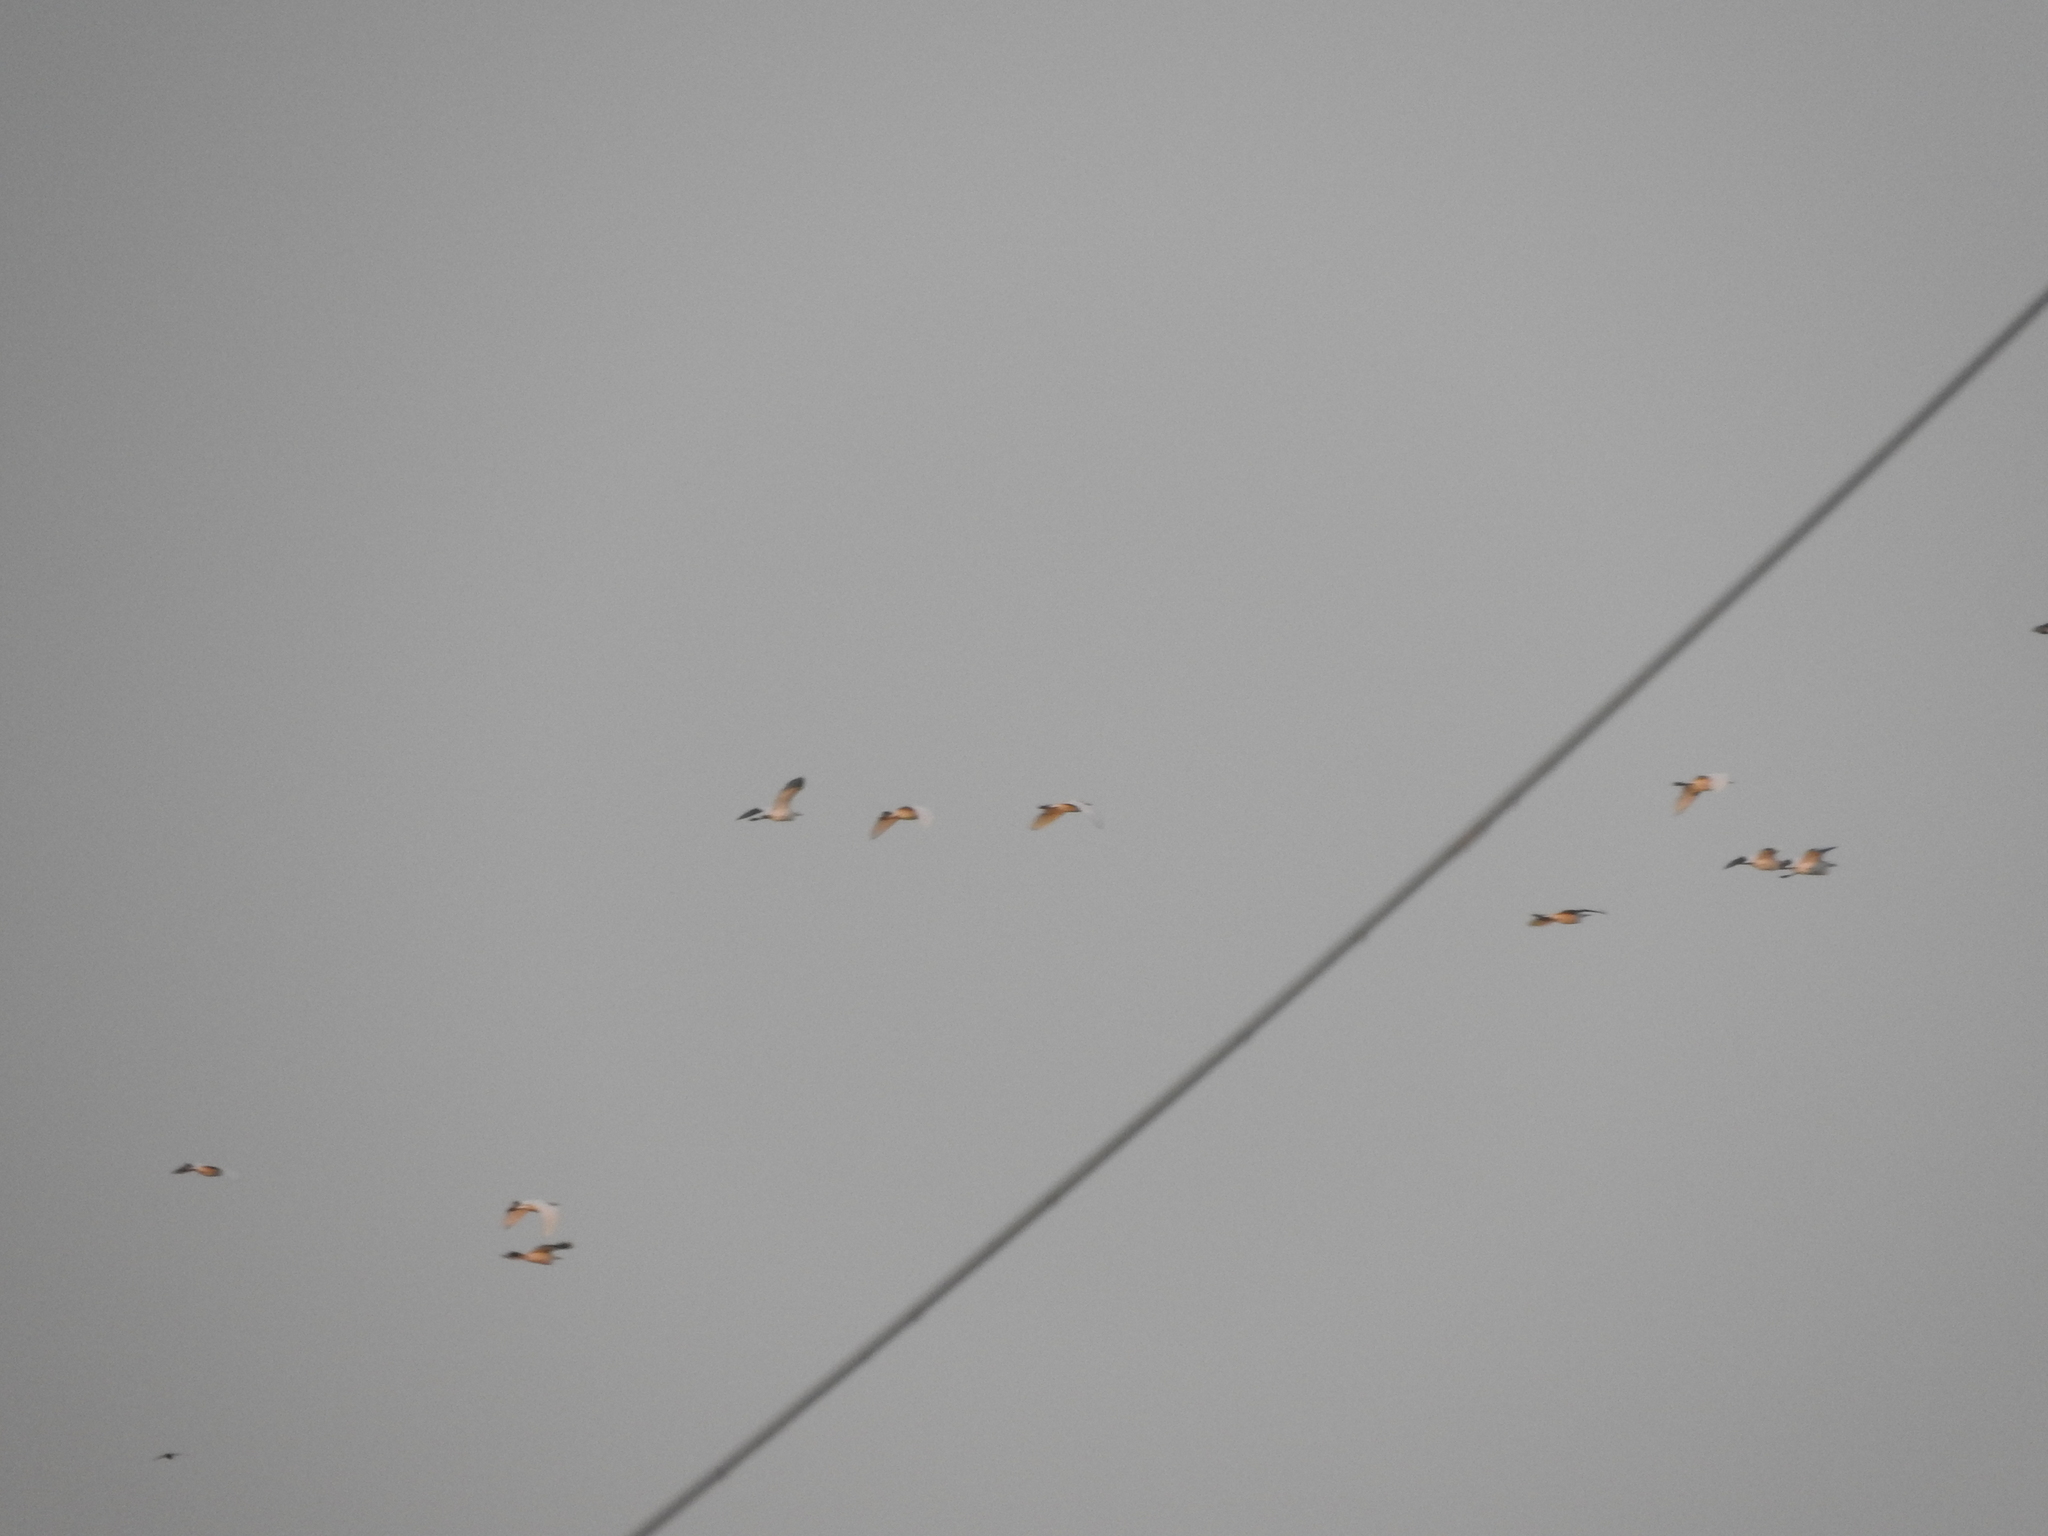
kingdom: Animalia
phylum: Chordata
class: Aves
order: Pelecaniformes
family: Ardeidae
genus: Bubulcus
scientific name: Bubulcus ibis
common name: Cattle egret
